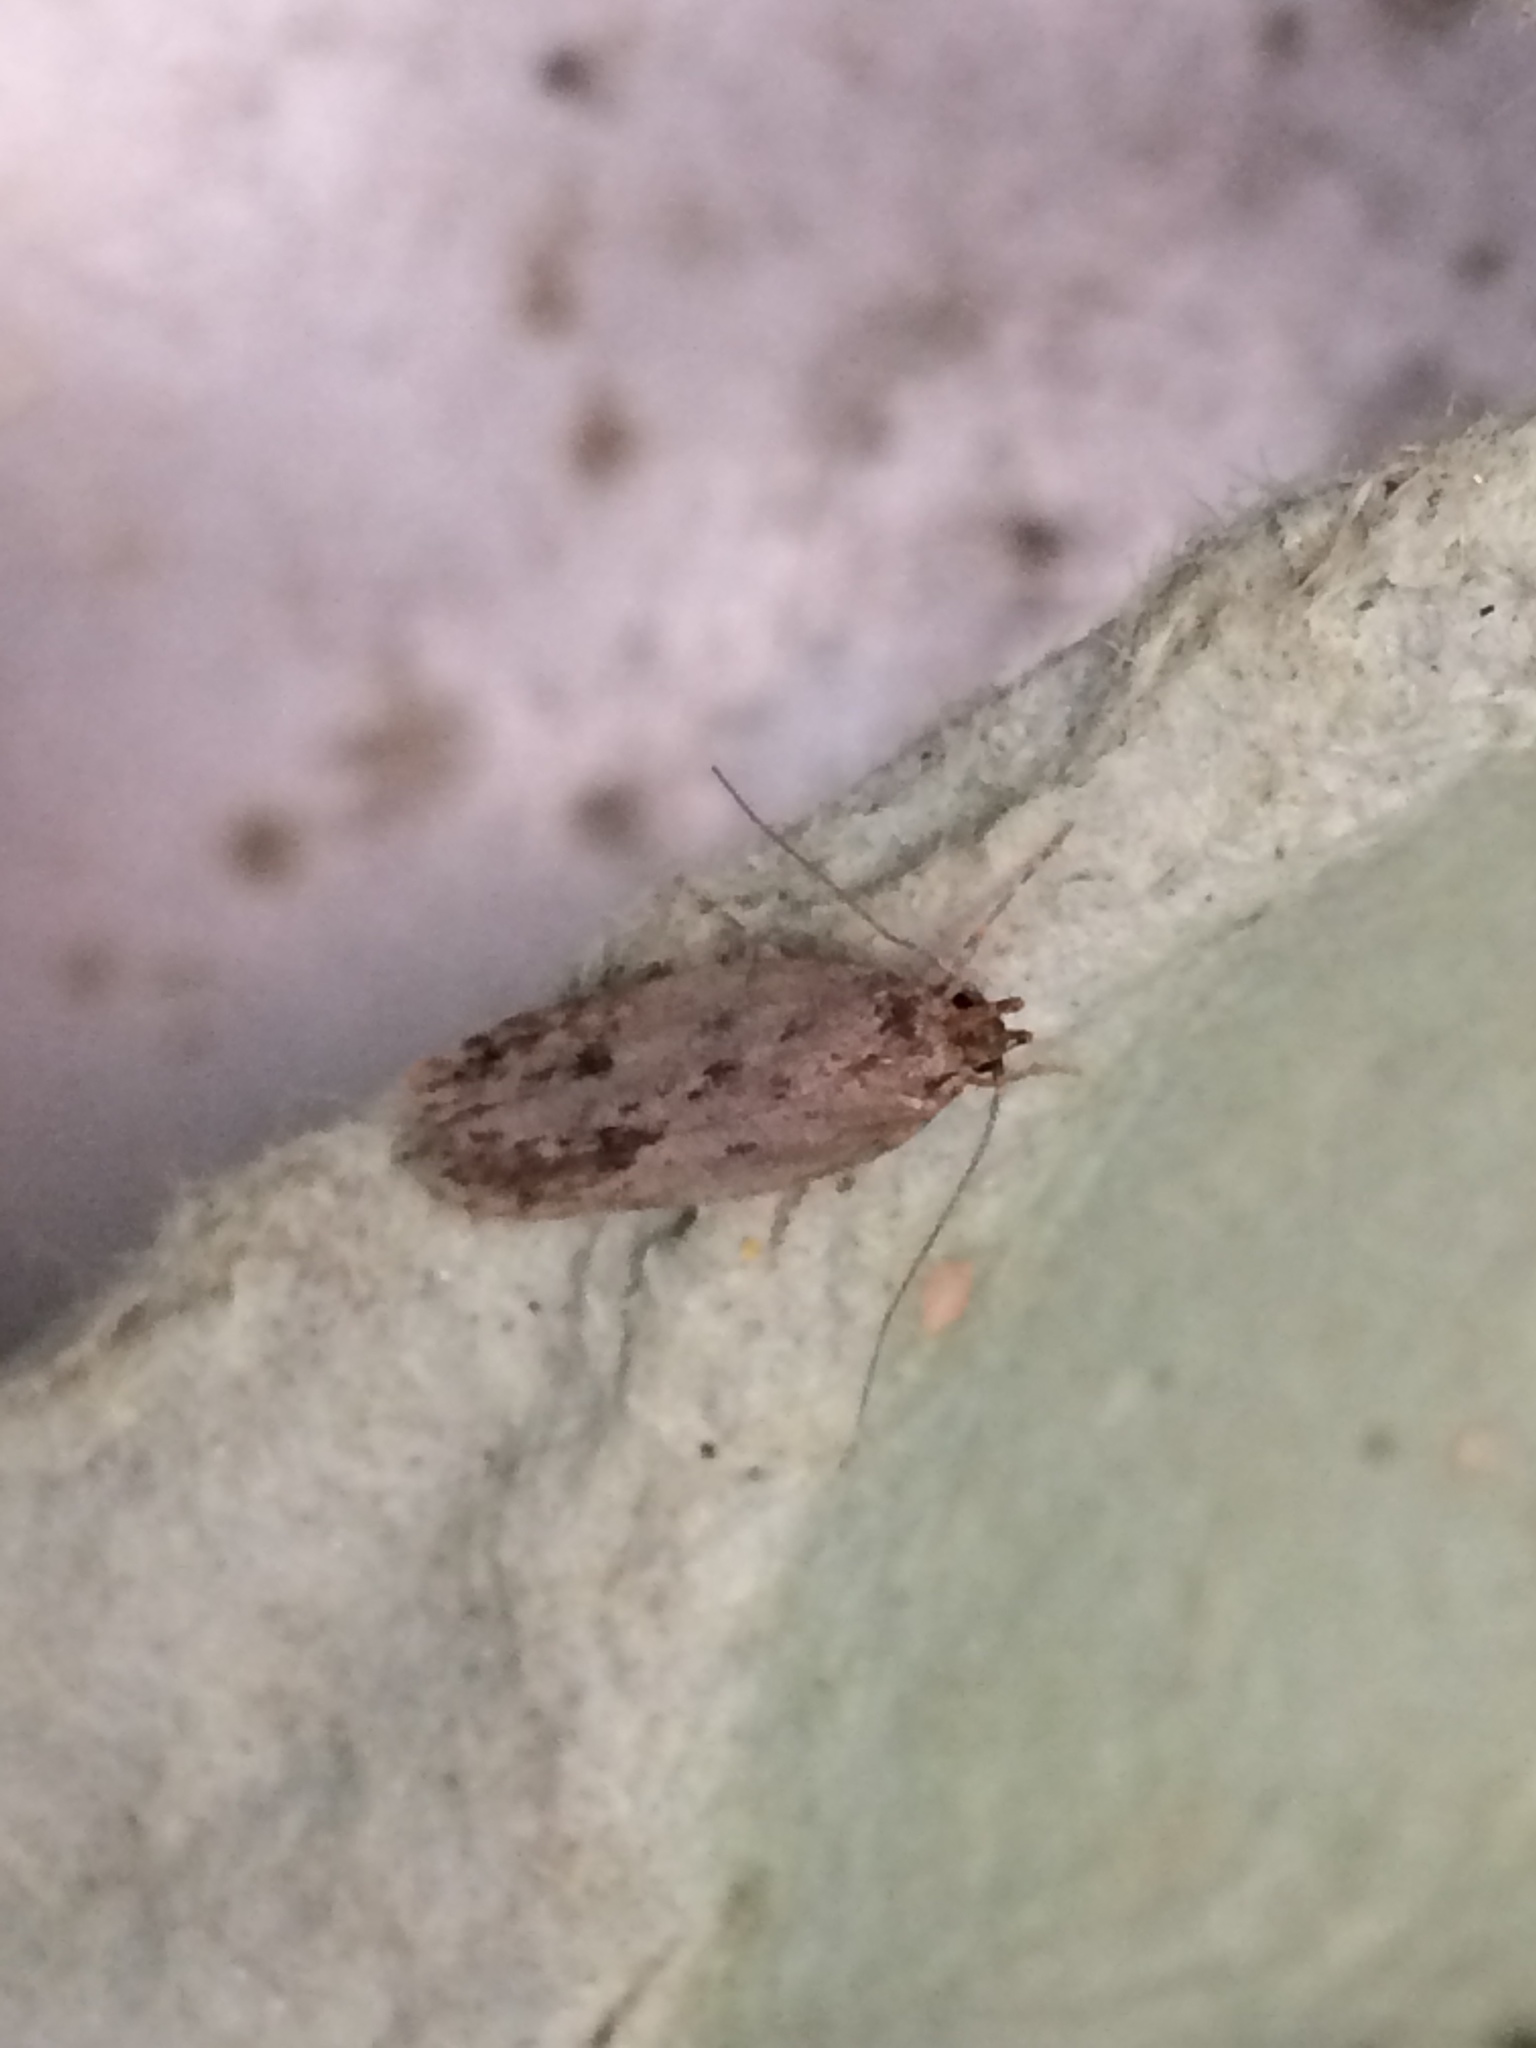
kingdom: Animalia
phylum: Arthropoda
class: Insecta
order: Lepidoptera
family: Oecophoridae
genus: Hofmannophila
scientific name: Hofmannophila pseudospretella
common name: Brown house moth
